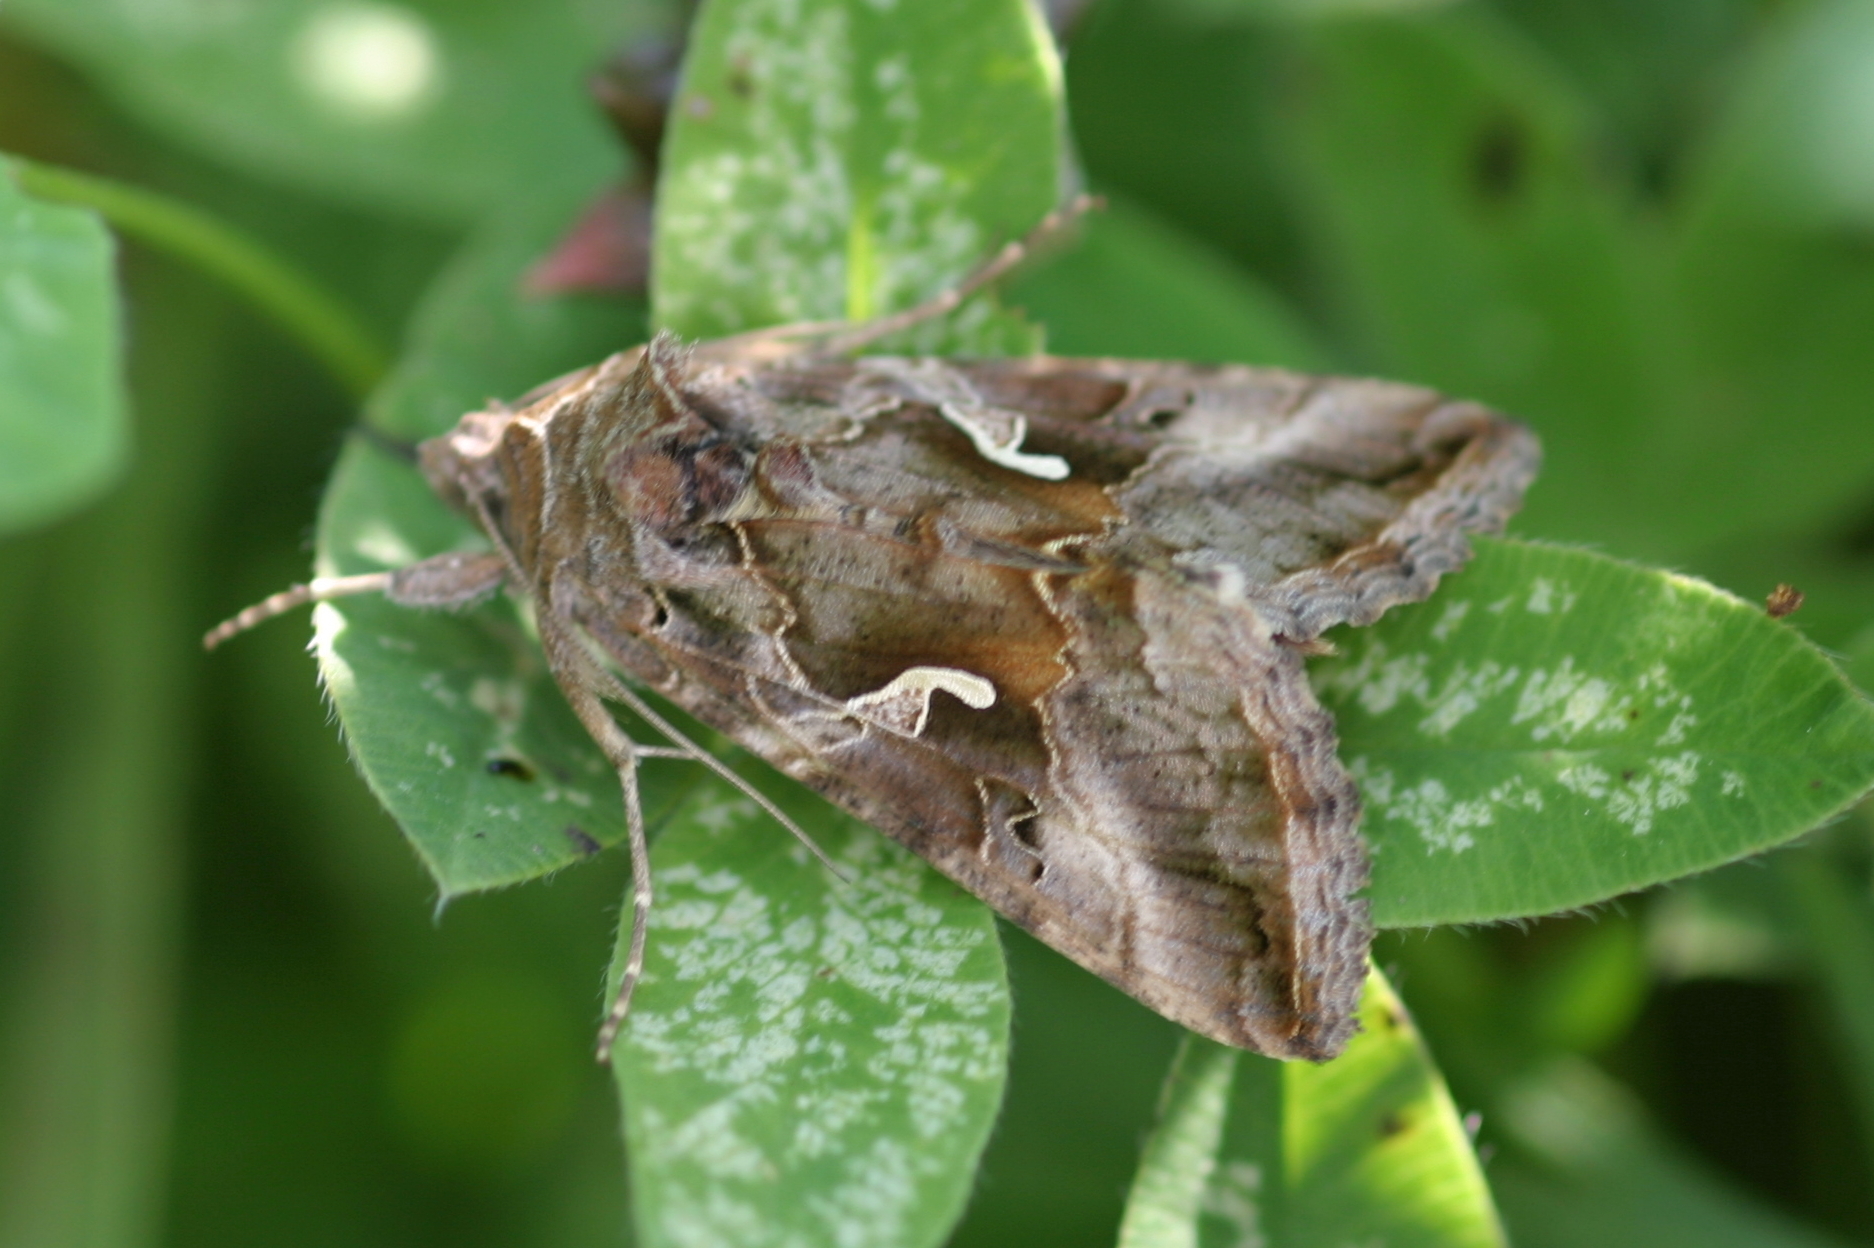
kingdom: Animalia
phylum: Arthropoda
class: Insecta
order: Lepidoptera
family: Noctuidae
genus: Autographa
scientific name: Autographa gamma
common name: Silver y
